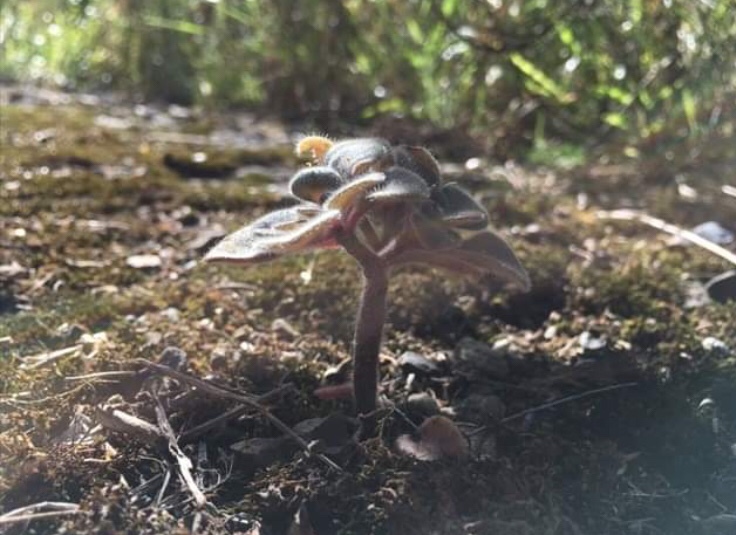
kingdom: Plantae
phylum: Tracheophyta
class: Magnoliopsida
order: Saxifragales
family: Crassulaceae
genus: Aichryson
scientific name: Aichryson laxum
